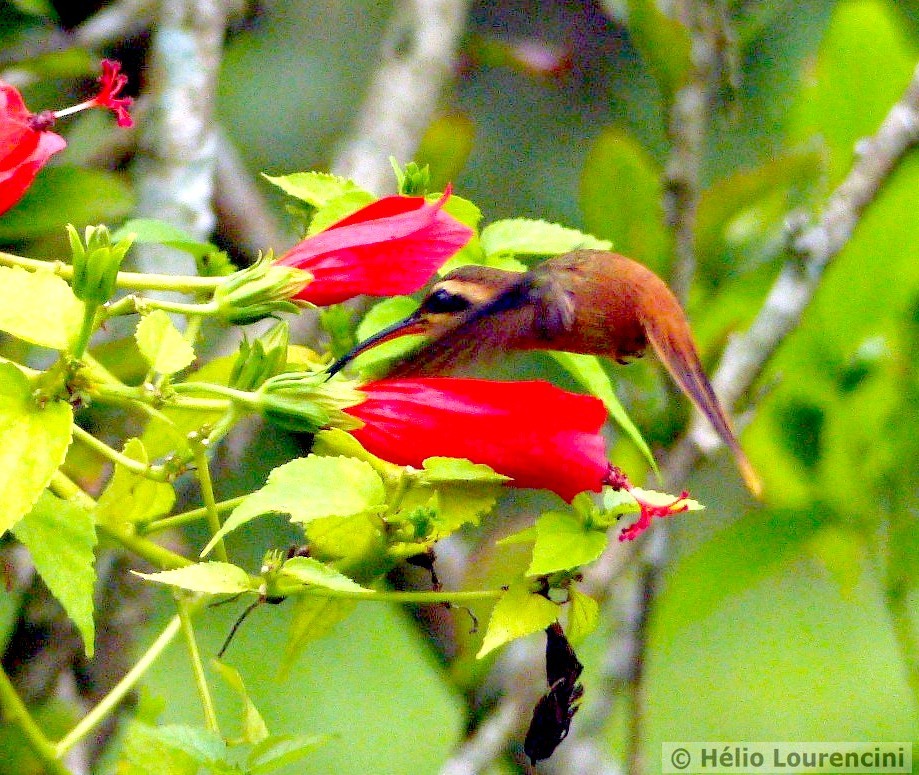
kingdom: Animalia
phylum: Chordata
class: Aves
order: Apodiformes
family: Trochilidae
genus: Phaethornis
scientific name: Phaethornis ruber
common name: Reddish hermit
